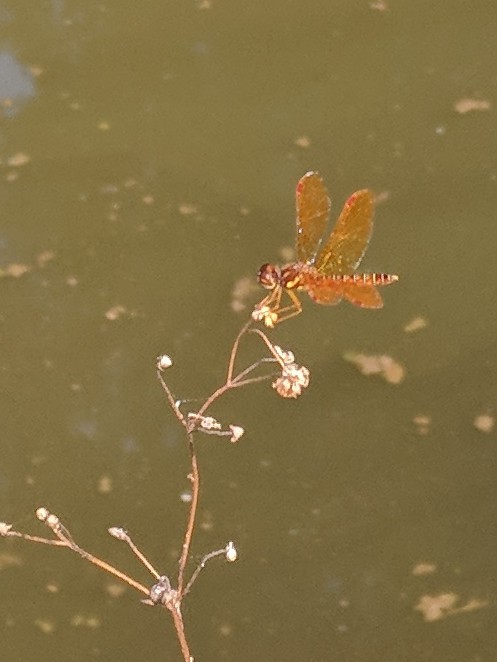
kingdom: Animalia
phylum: Arthropoda
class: Insecta
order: Odonata
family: Libellulidae
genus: Perithemis
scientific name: Perithemis tenera
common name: Eastern amberwing
